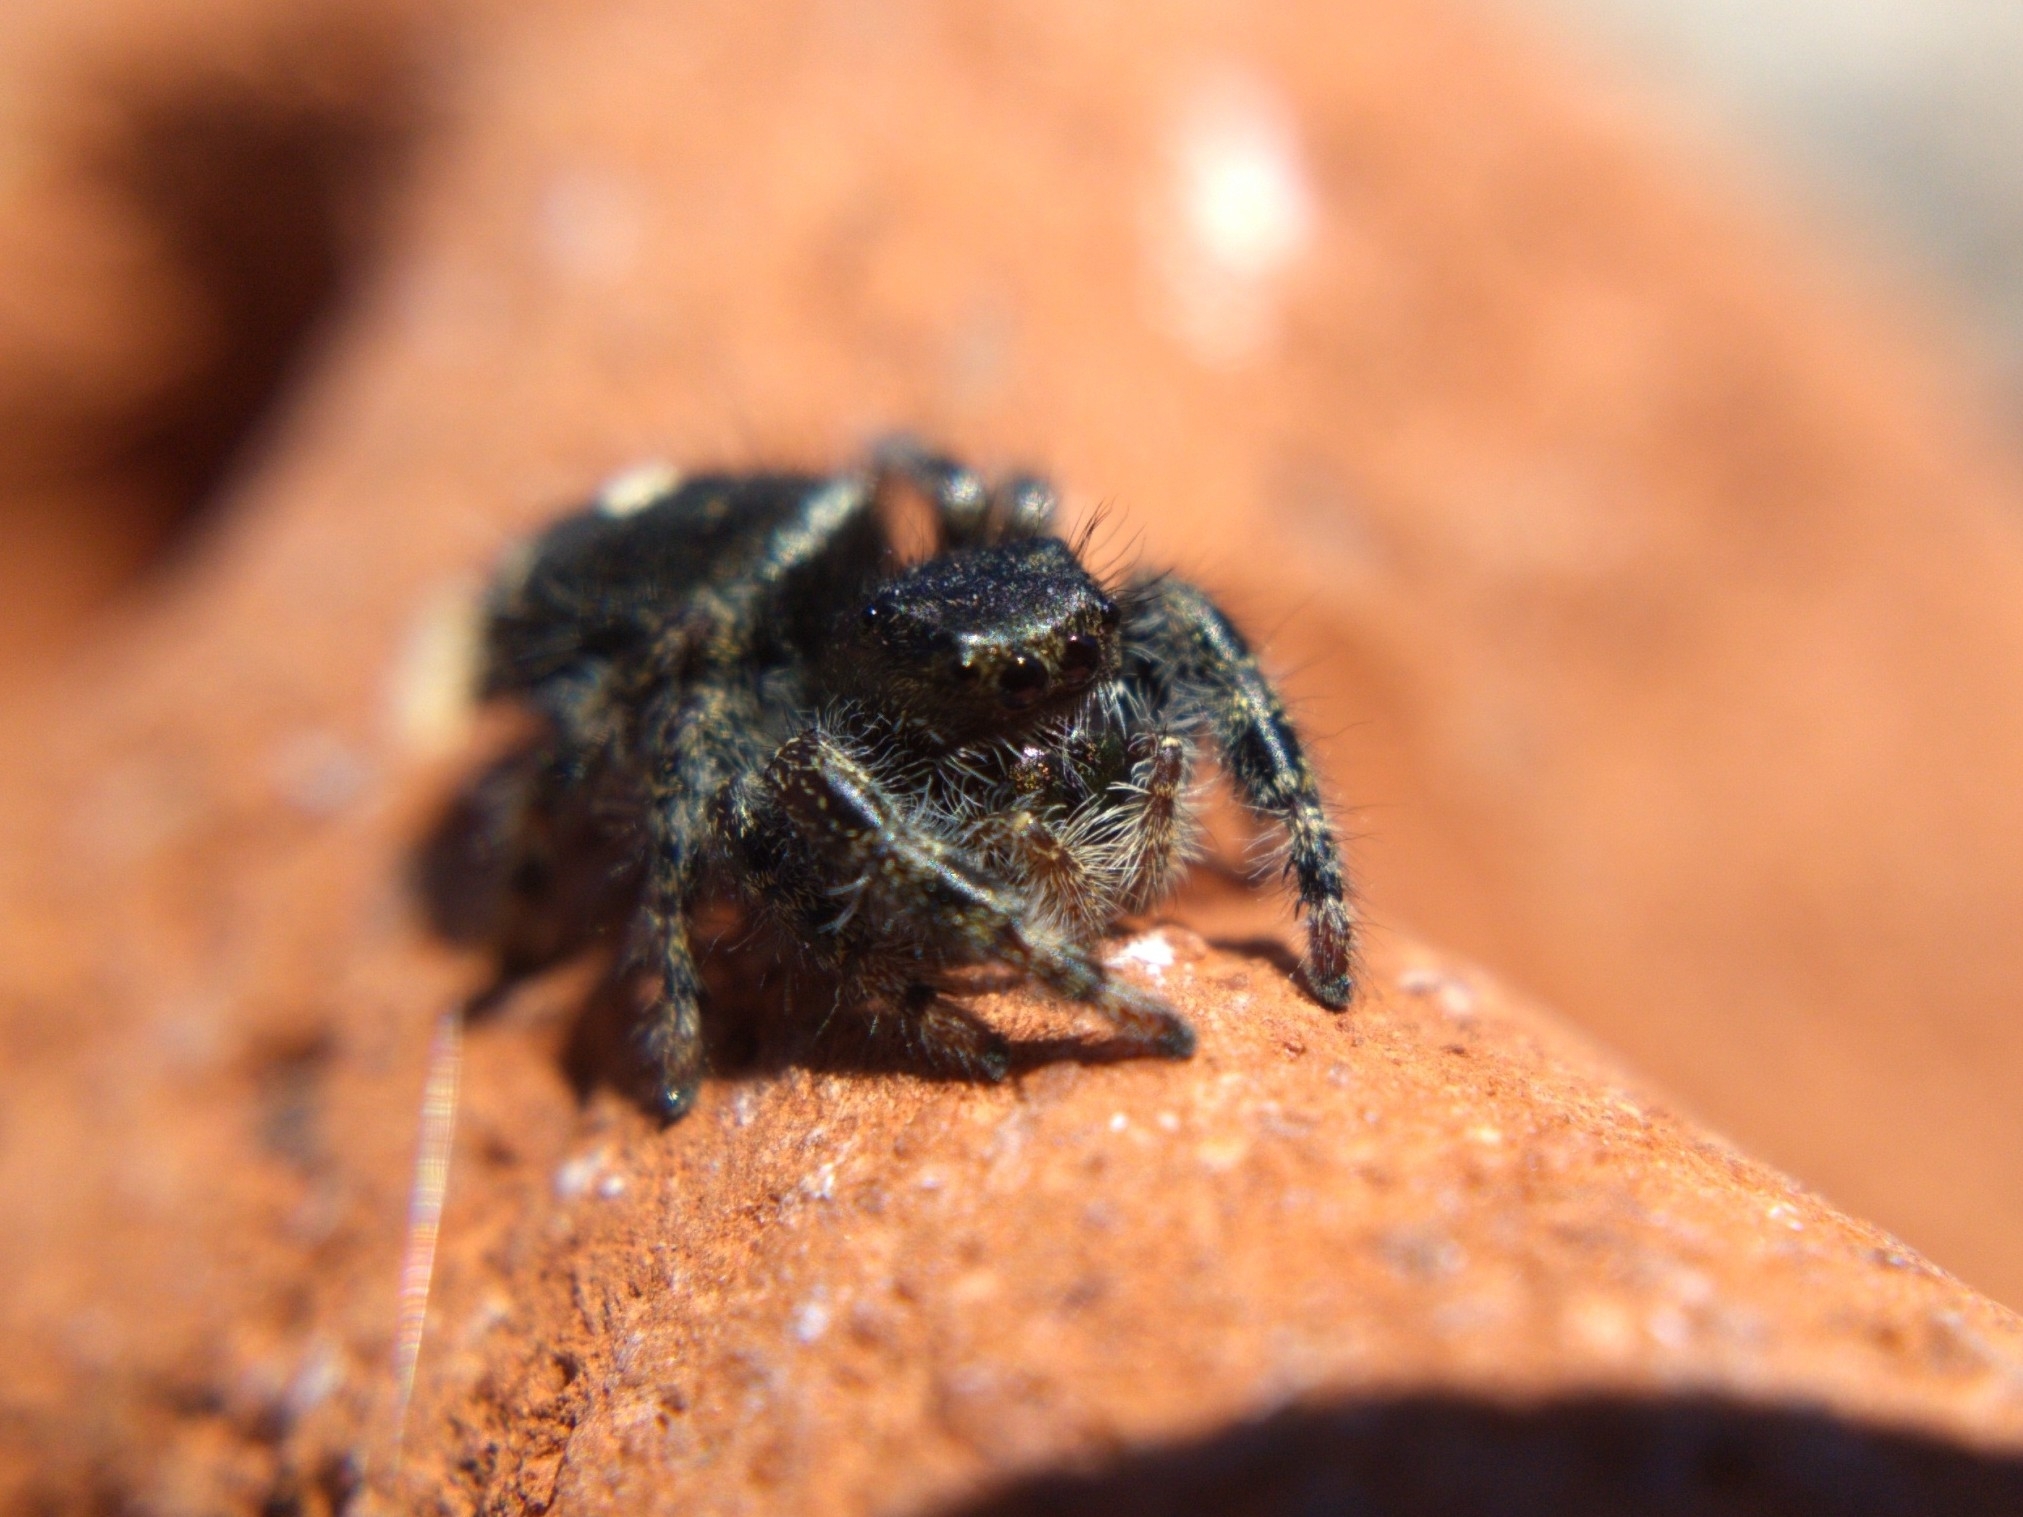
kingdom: Animalia
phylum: Arthropoda
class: Arachnida
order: Araneae
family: Salticidae
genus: Phidippus
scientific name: Phidippus audax
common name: Bold jumper
